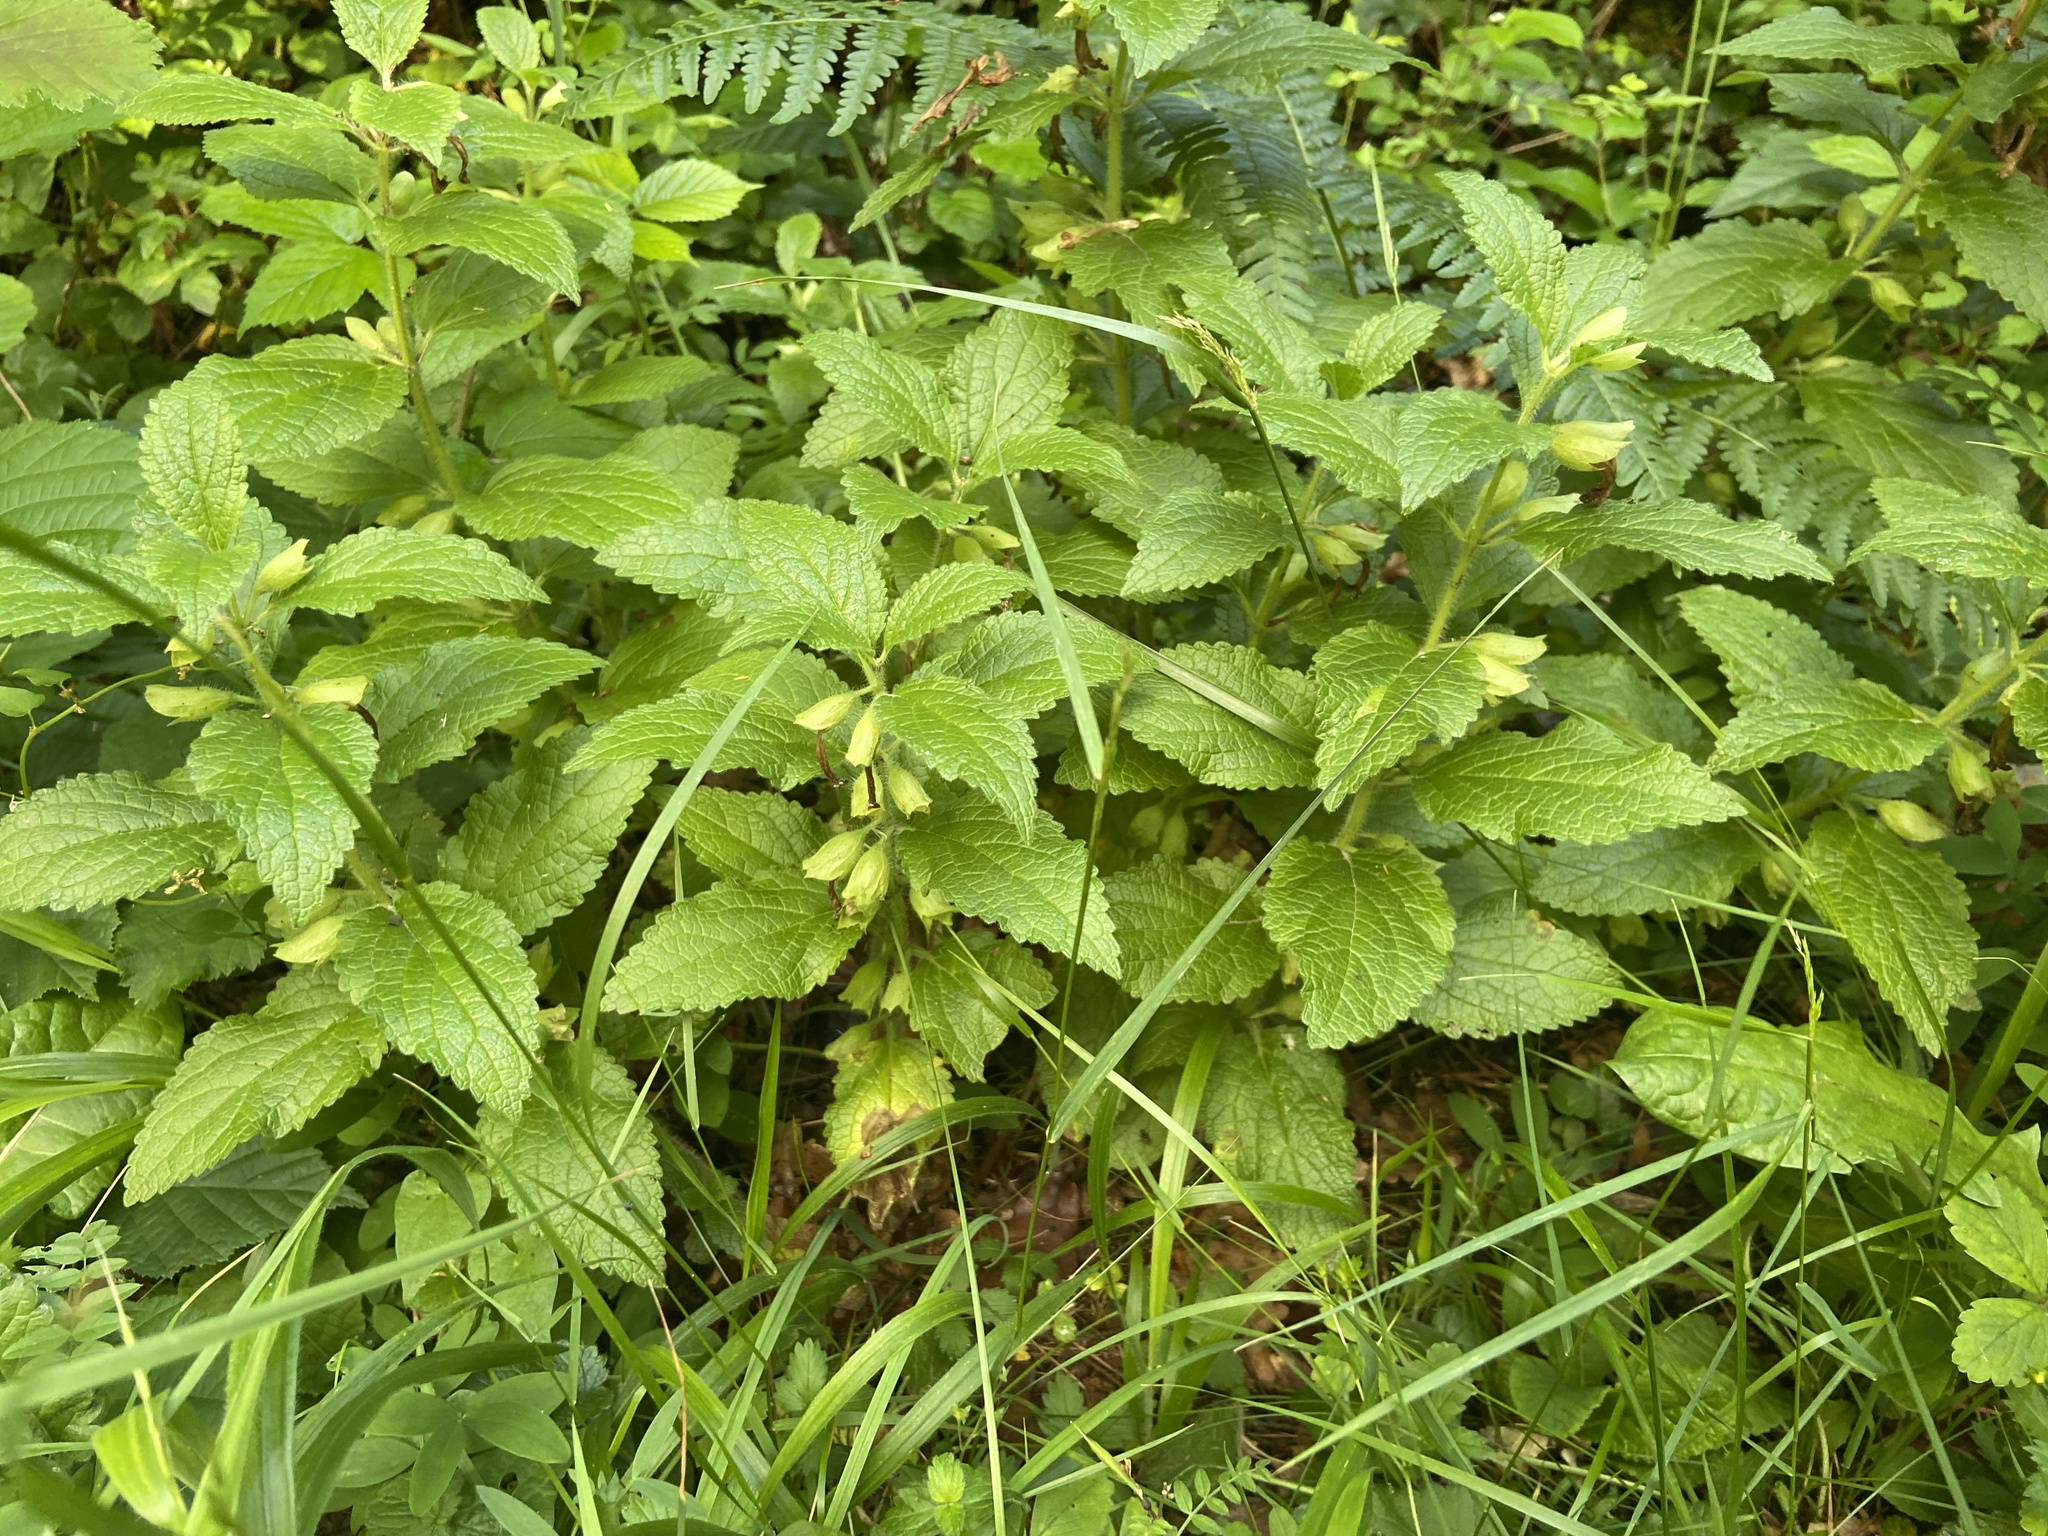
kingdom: Plantae
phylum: Tracheophyta
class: Magnoliopsida
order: Lamiales
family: Lamiaceae
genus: Melittis
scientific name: Melittis melissophyllum
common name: Bastard balm
